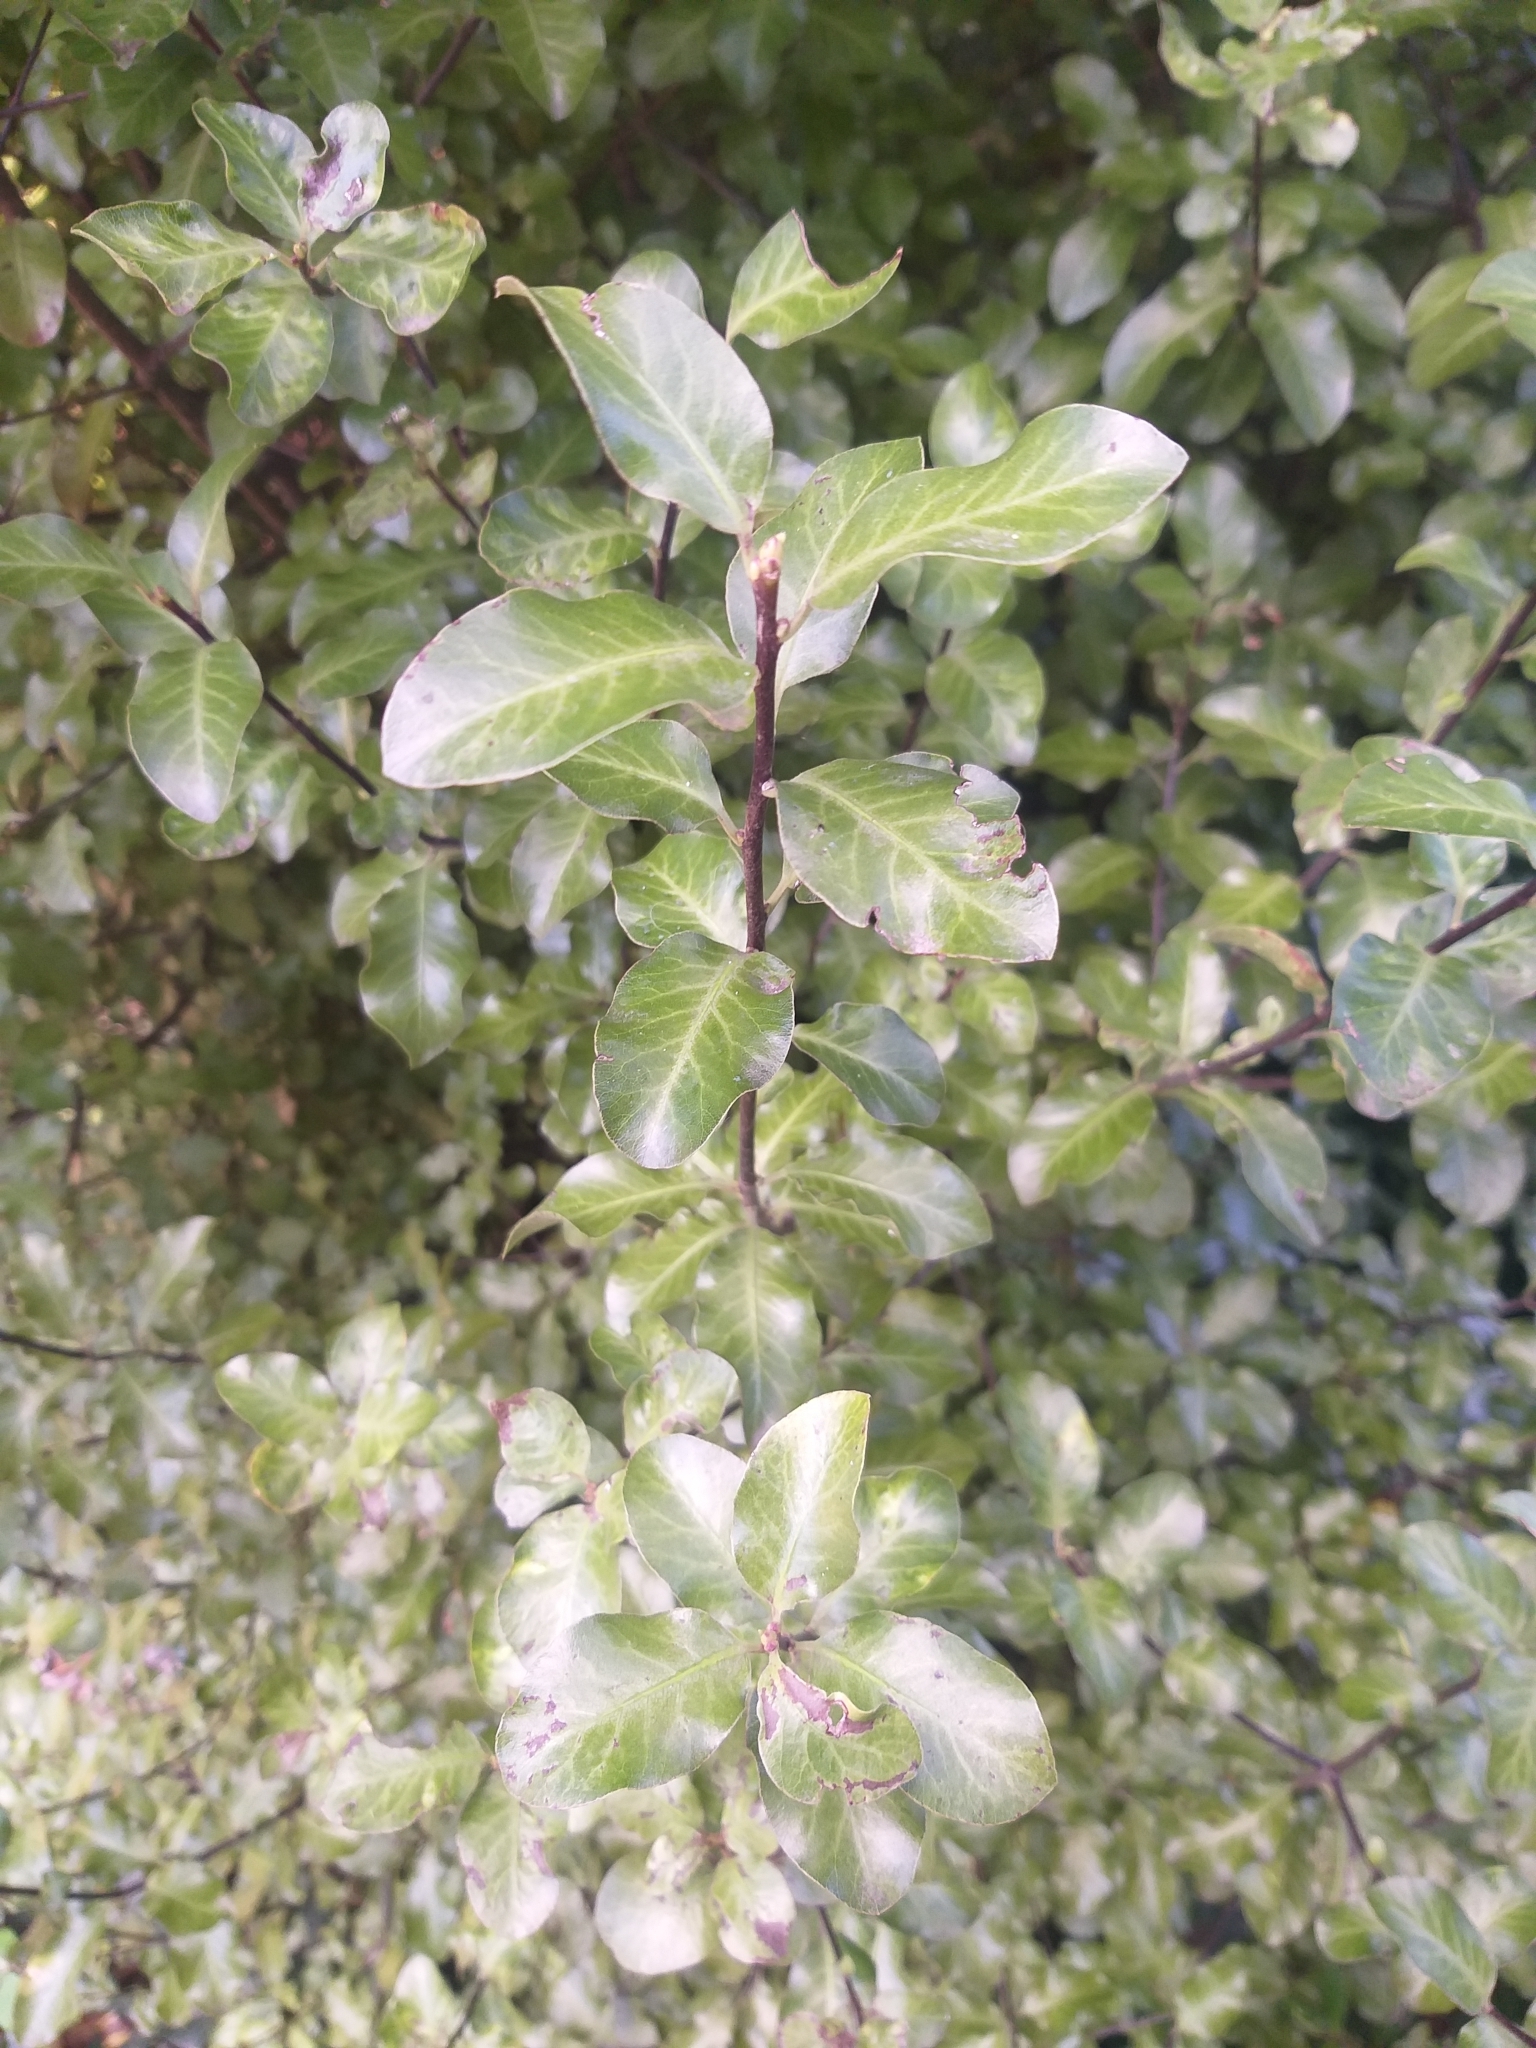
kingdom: Plantae
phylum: Tracheophyta
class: Magnoliopsida
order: Apiales
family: Pittosporaceae
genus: Pittosporum
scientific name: Pittosporum tenuifolium
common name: Kohuhu
